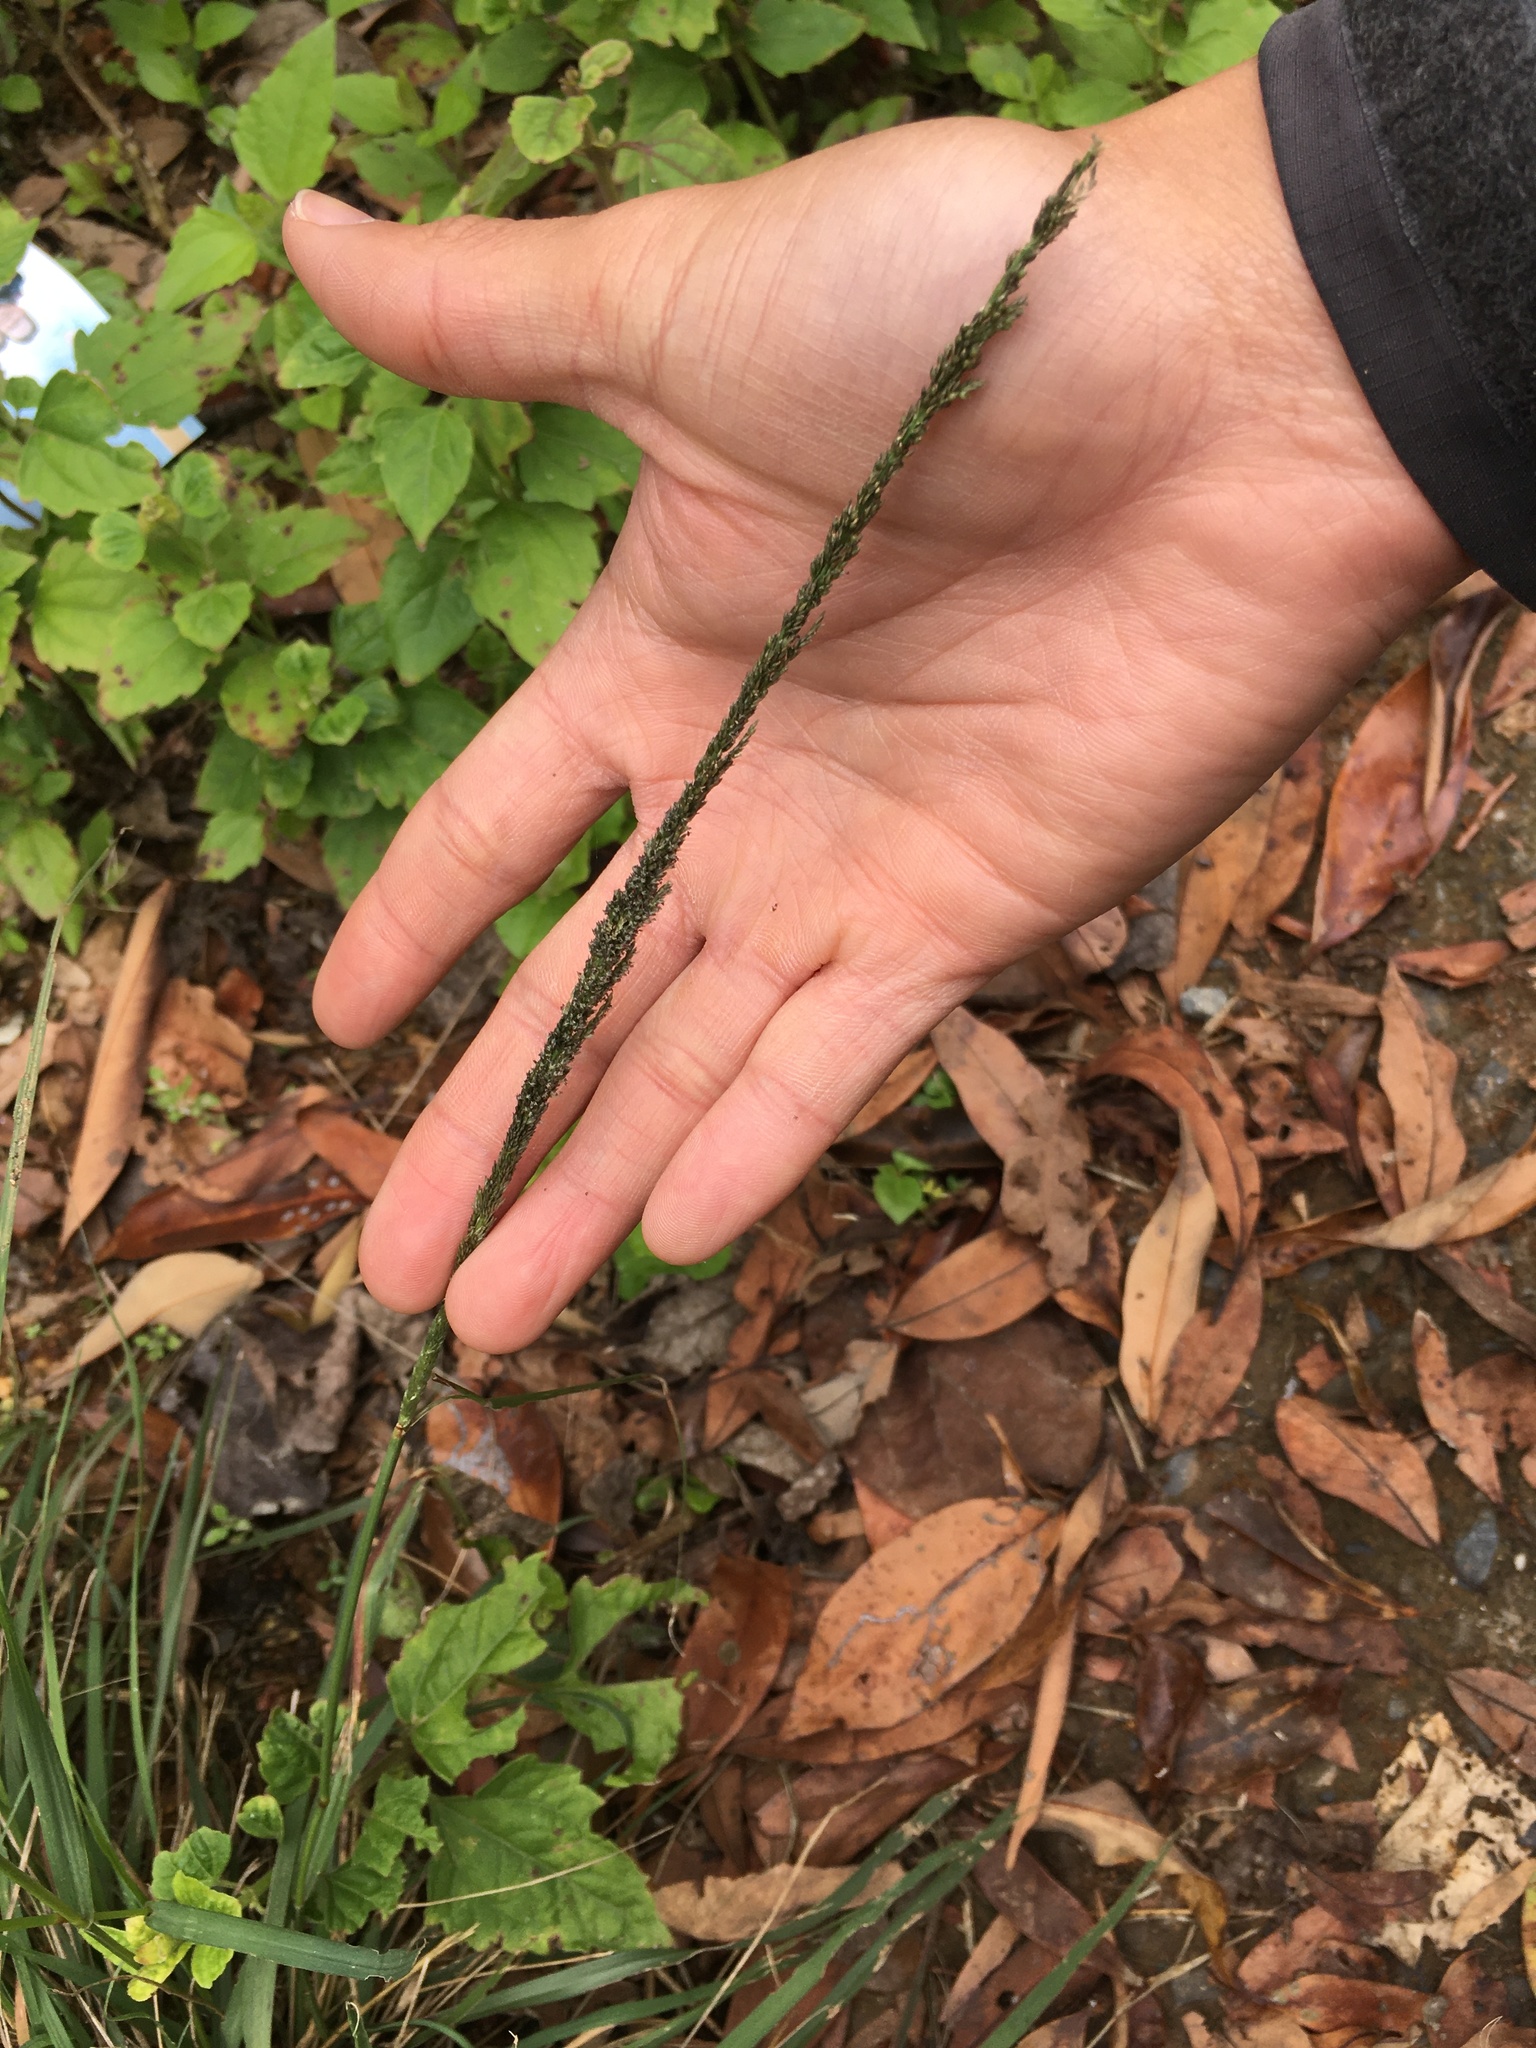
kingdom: Plantae
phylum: Tracheophyta
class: Liliopsida
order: Poales
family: Poaceae
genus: Sporobolus
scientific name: Sporobolus indicus
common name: Smut grass
